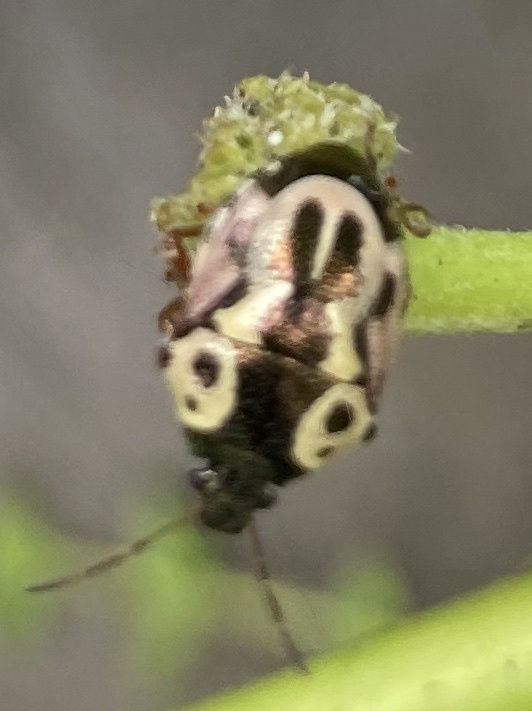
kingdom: Animalia
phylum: Arthropoda
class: Insecta
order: Hemiptera
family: Pentatomidae
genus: Stiretrus
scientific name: Stiretrus anchorago
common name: Anchor stink bug
